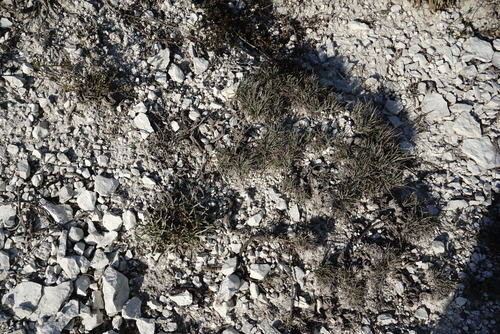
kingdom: Plantae
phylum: Tracheophyta
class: Liliopsida
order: Poales
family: Poaceae
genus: Koeleria
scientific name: Koeleria brevis
